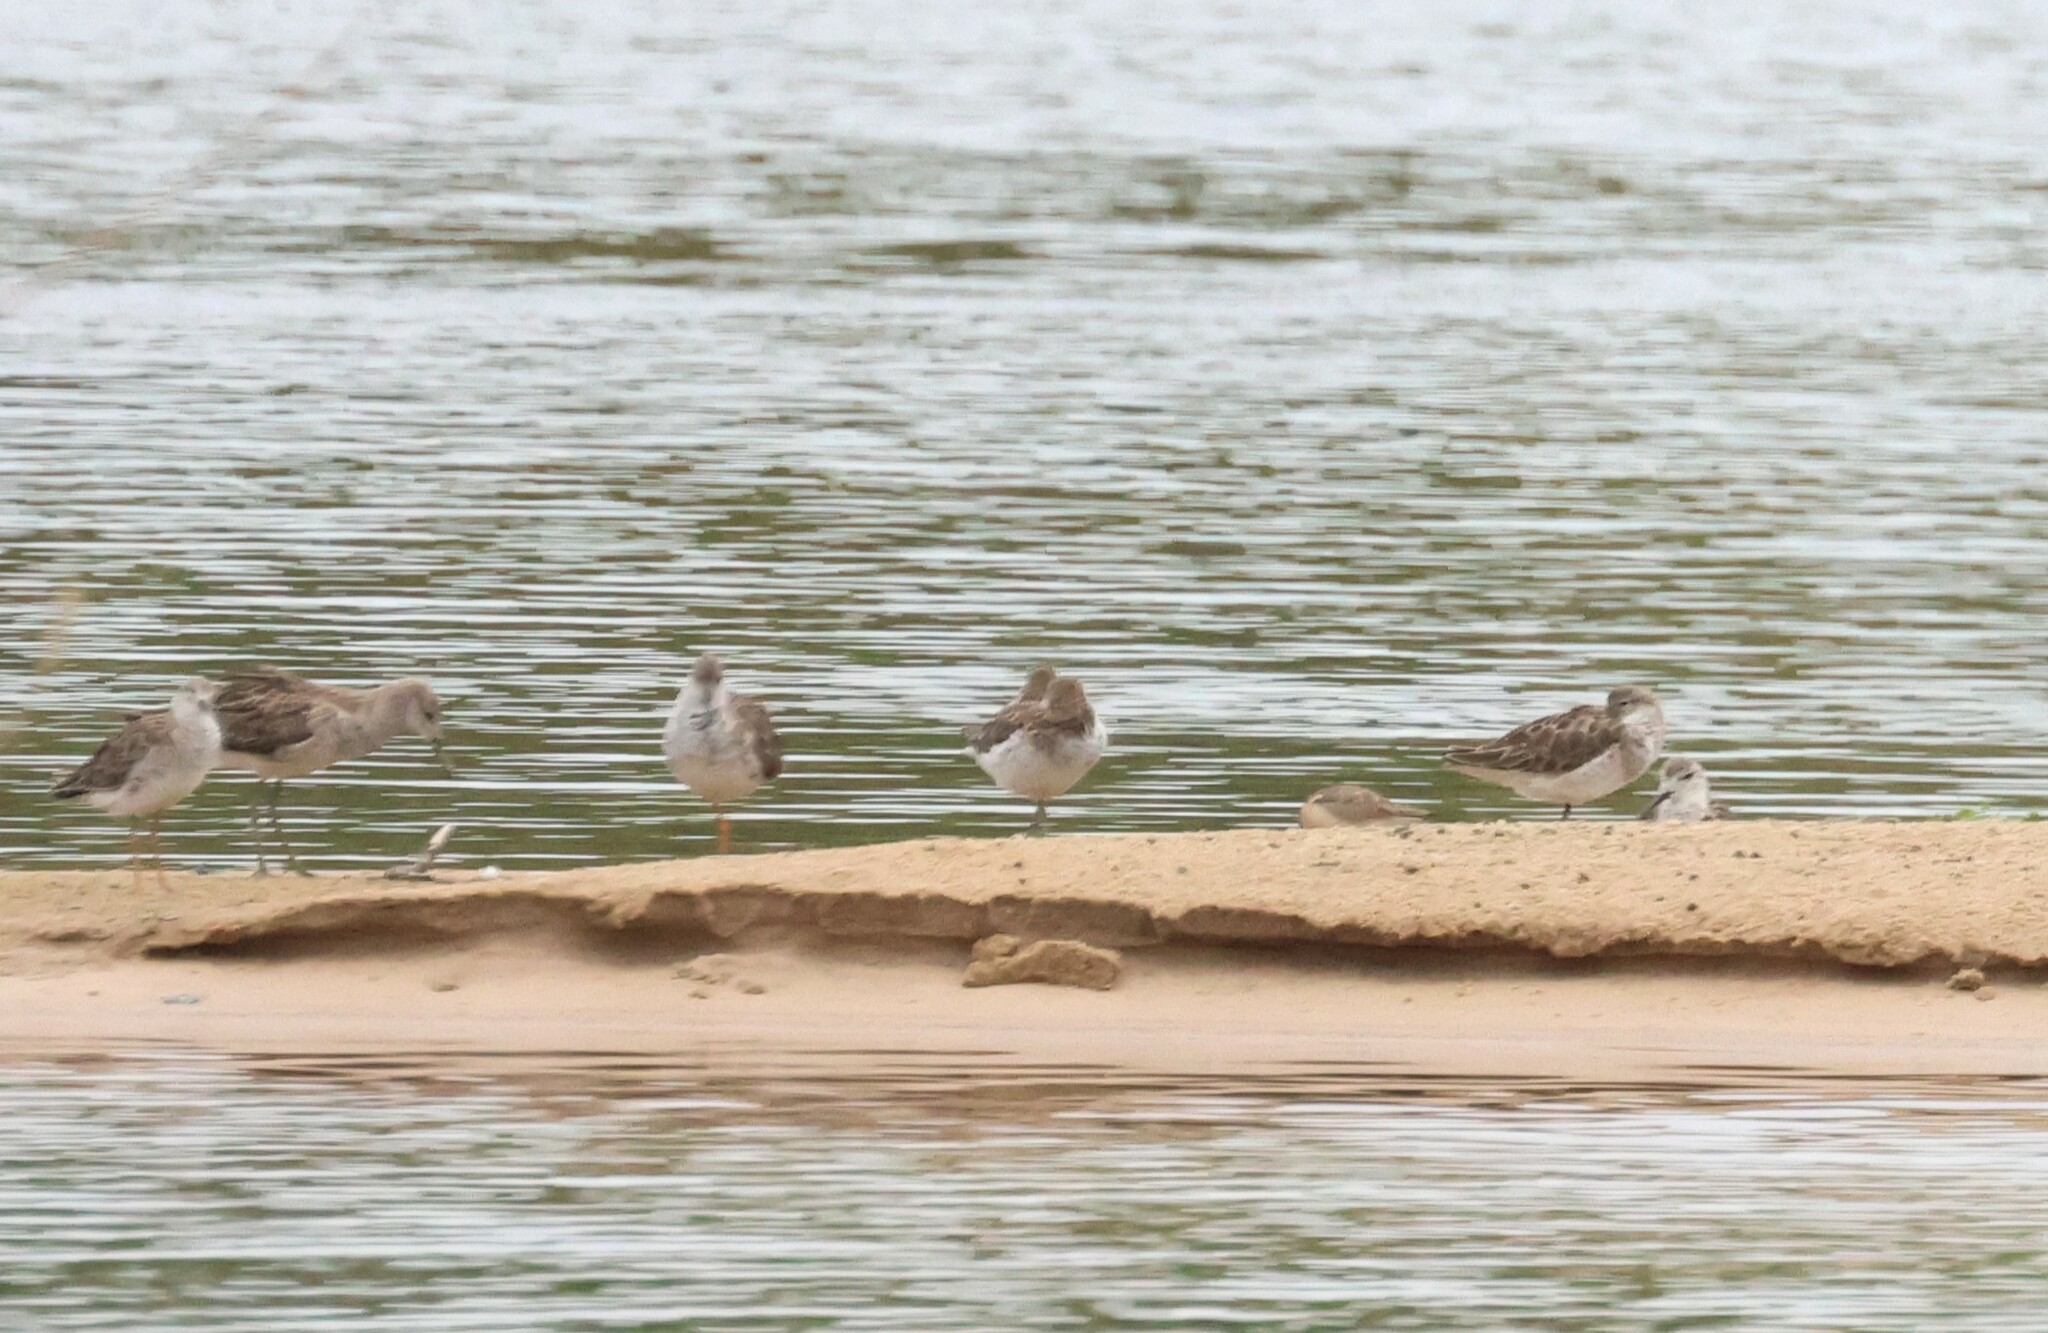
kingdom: Animalia
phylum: Chordata
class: Aves
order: Charadriiformes
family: Scolopacidae
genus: Calidris
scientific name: Calidris pugnax
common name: Ruff
